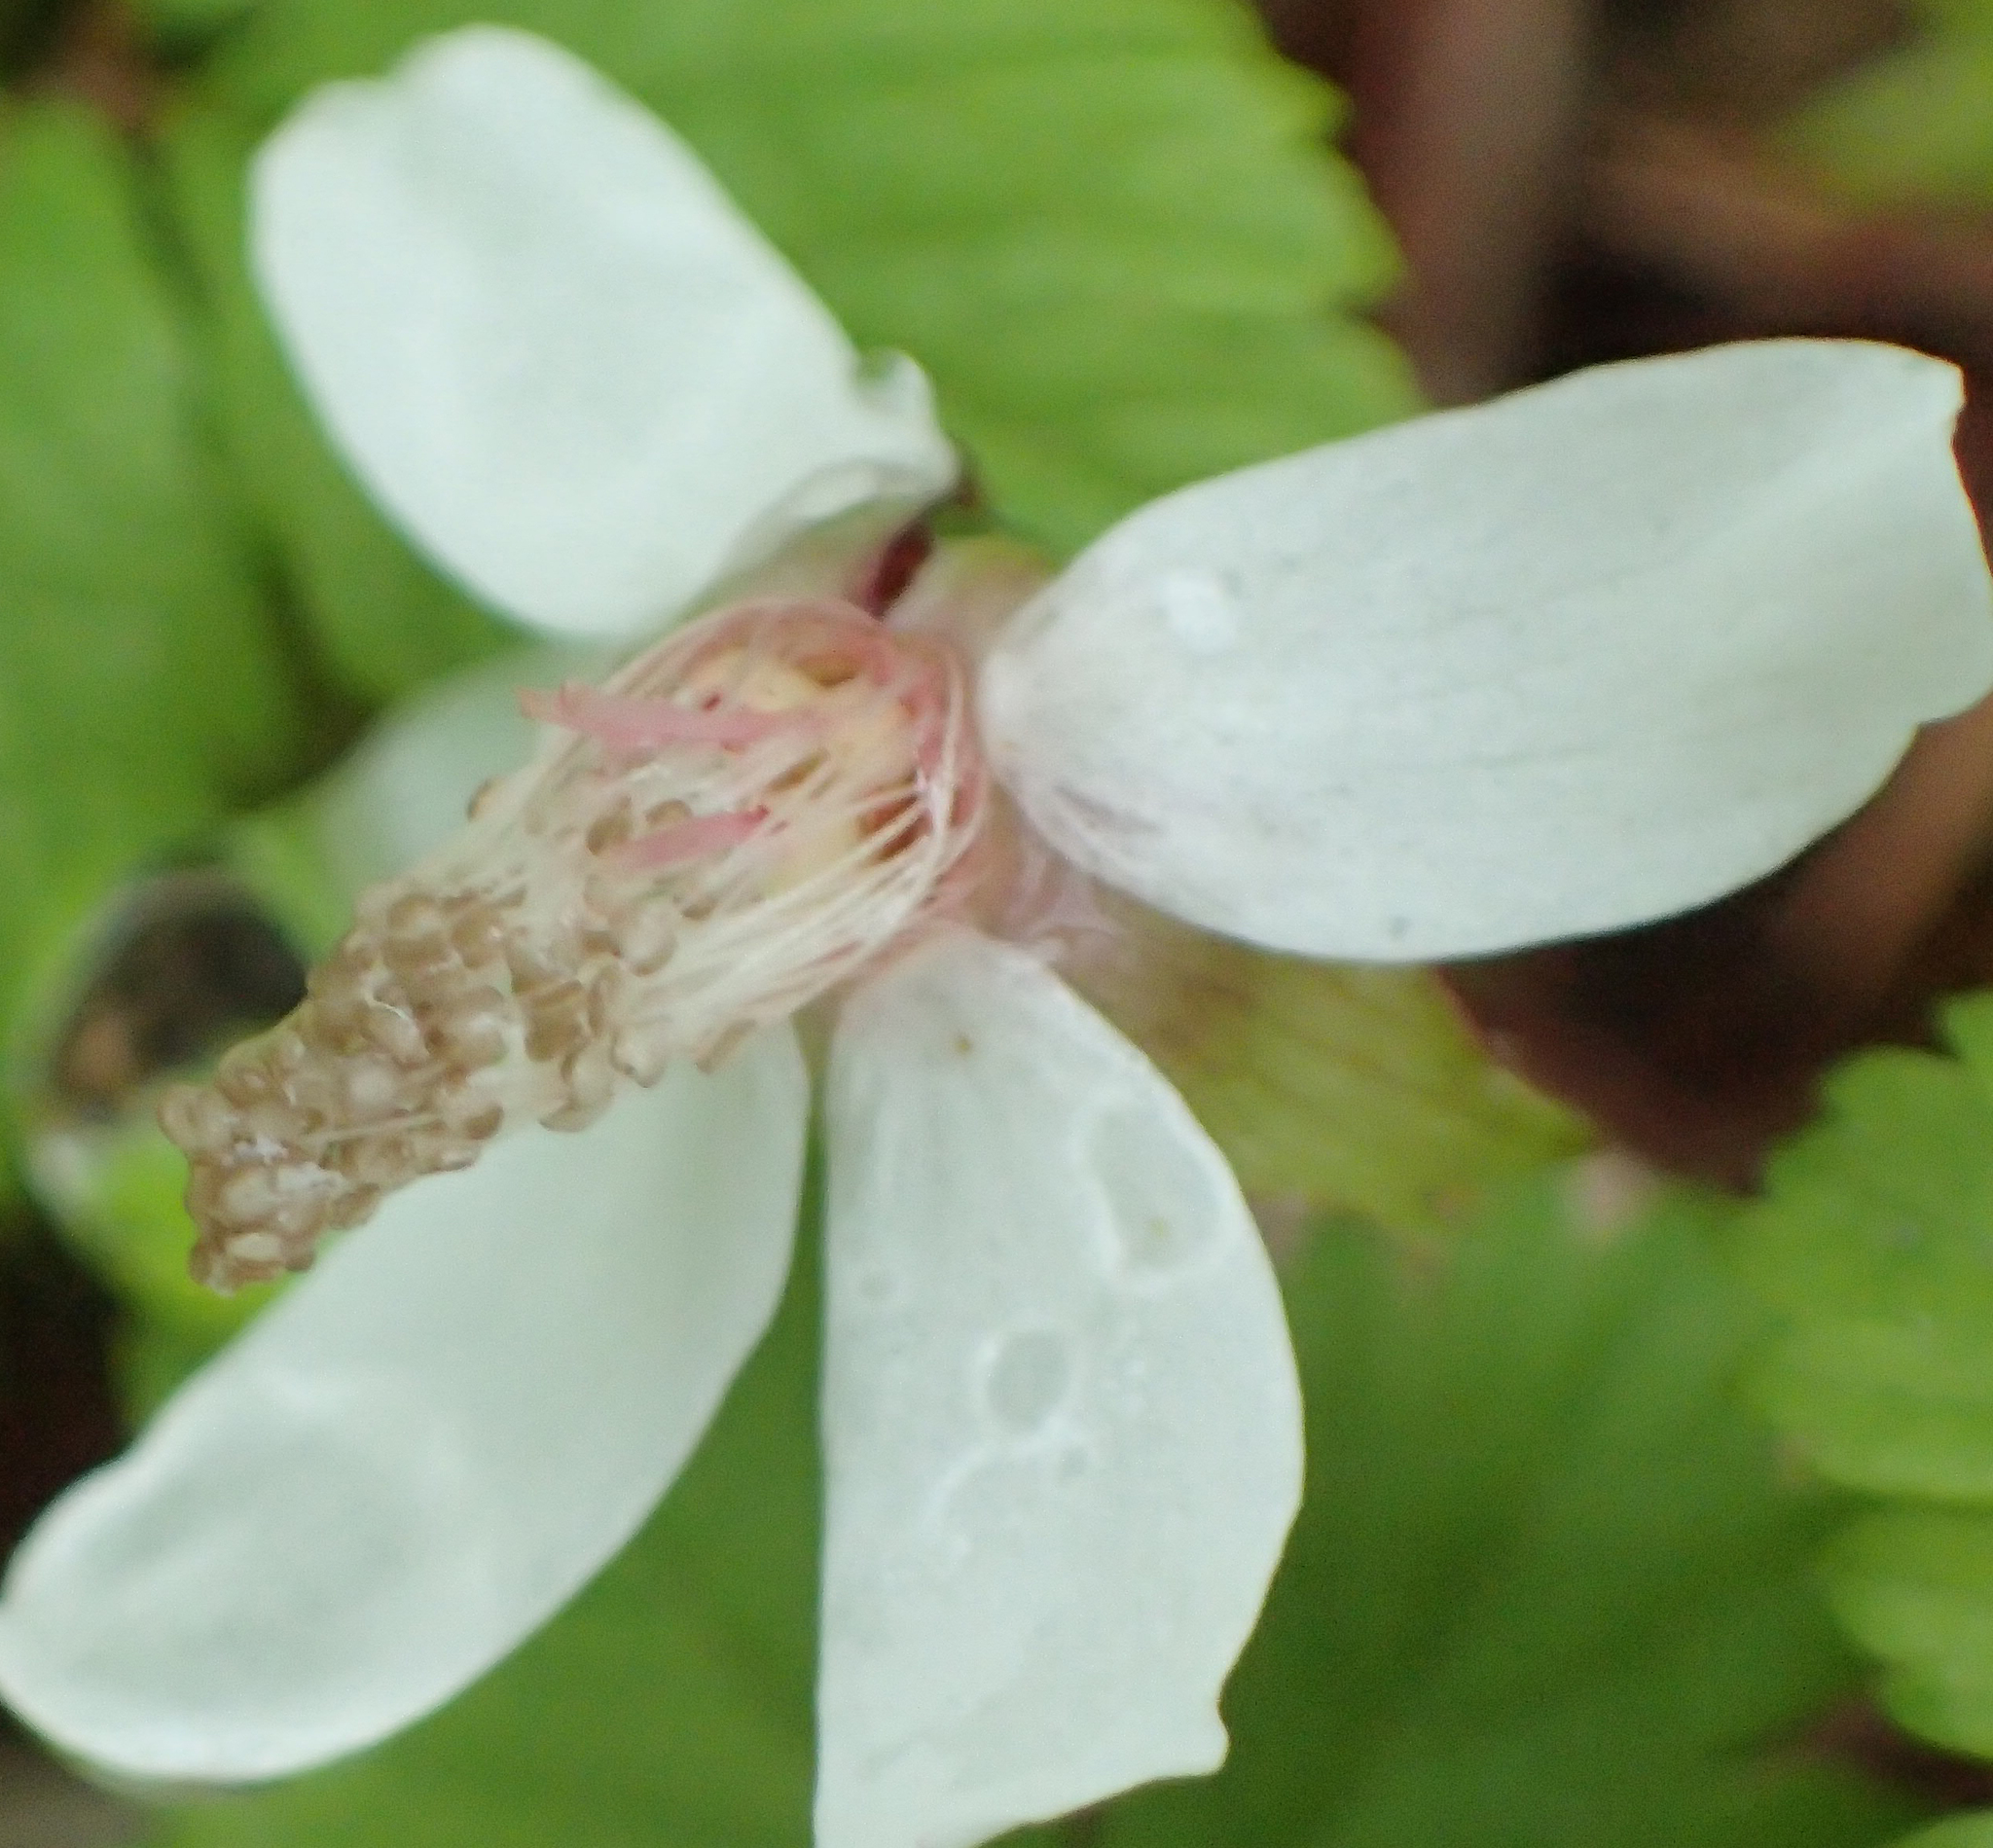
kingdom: Plantae
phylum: Tracheophyta
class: Magnoliopsida
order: Rosales
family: Rosaceae
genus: Rubus
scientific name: Rubus pedatus
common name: Creeping raspberry
